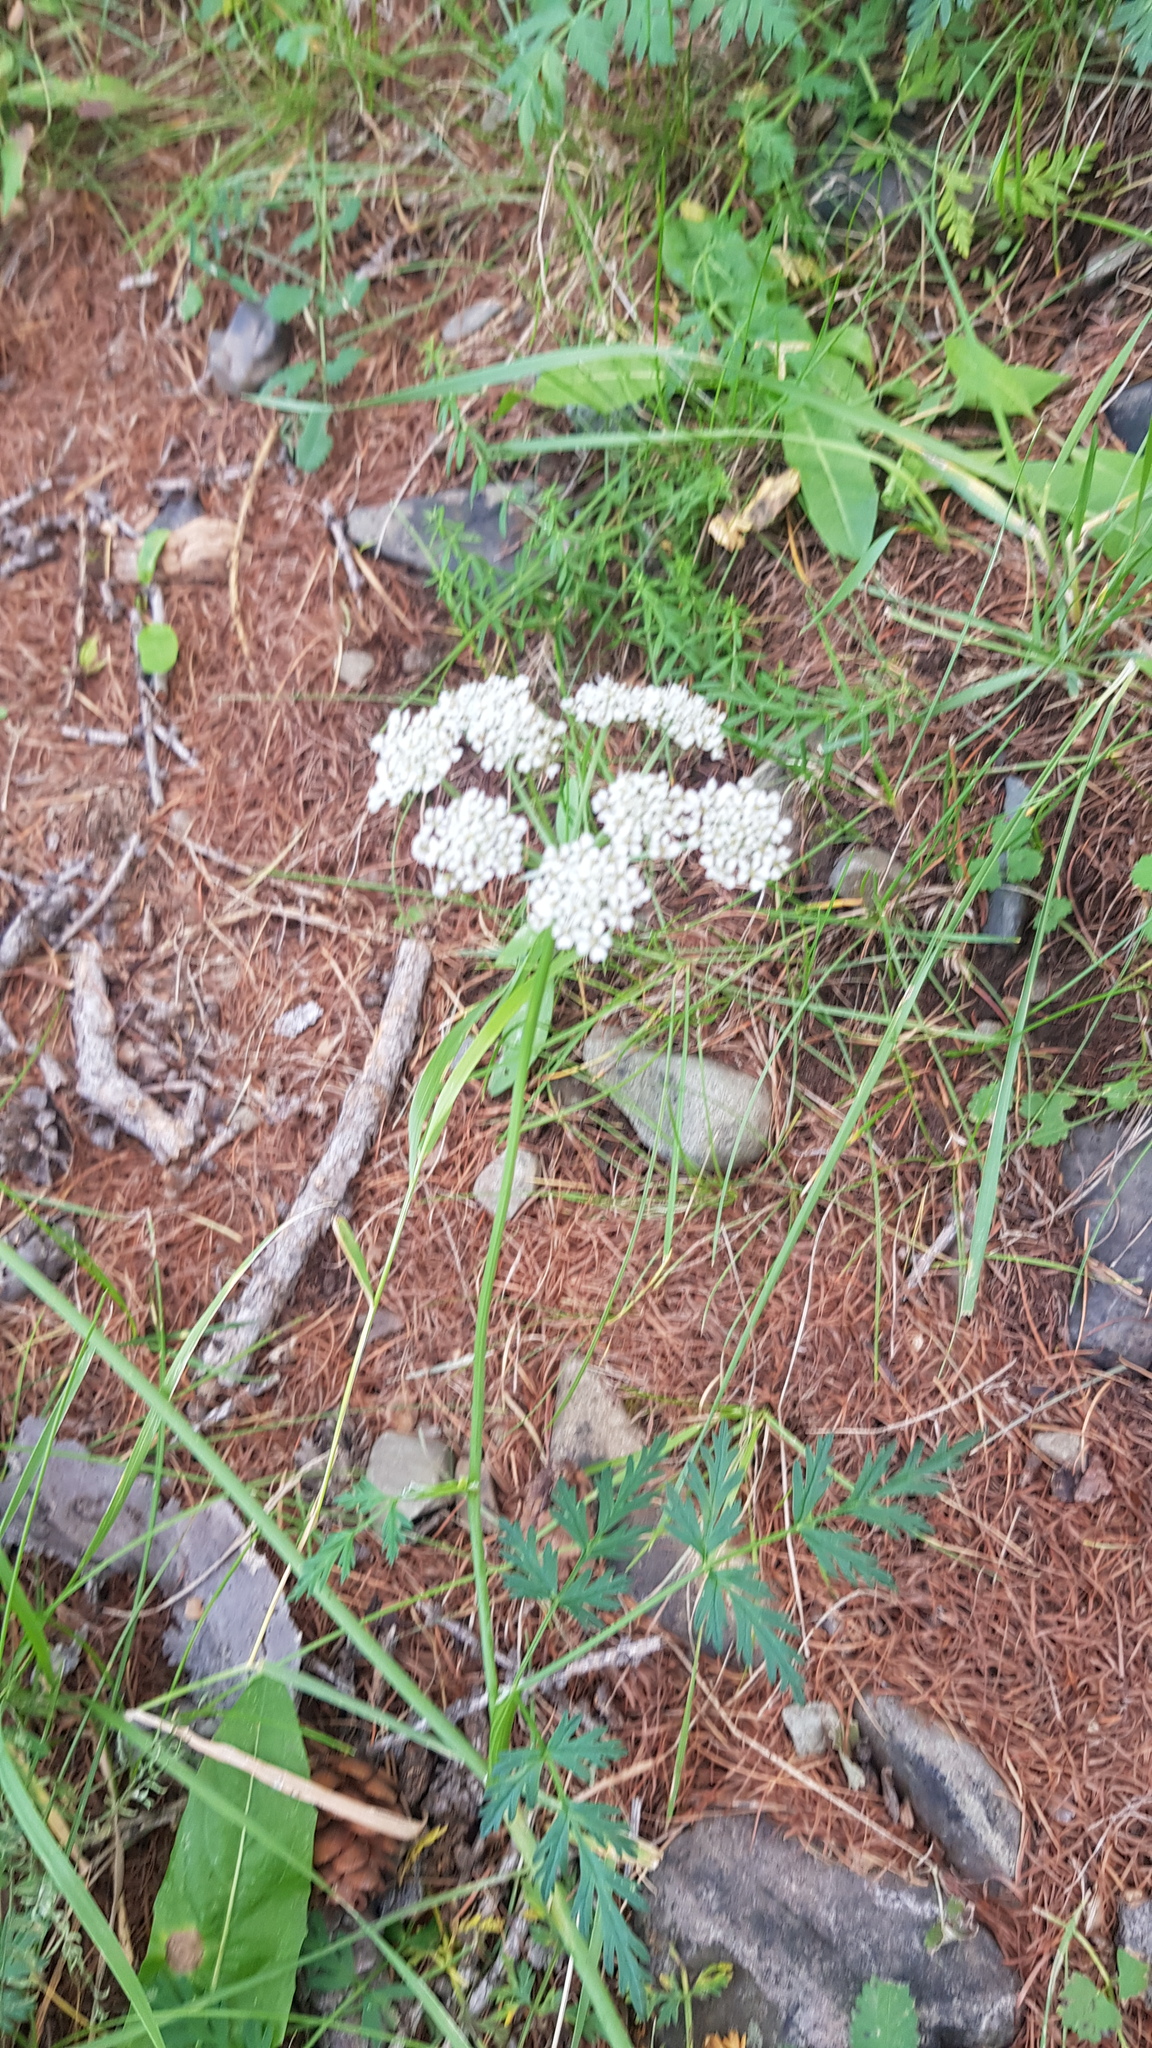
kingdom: Plantae
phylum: Tracheophyta
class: Magnoliopsida
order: Apiales
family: Apiaceae
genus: Aegopodium
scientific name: Aegopodium alpestre
